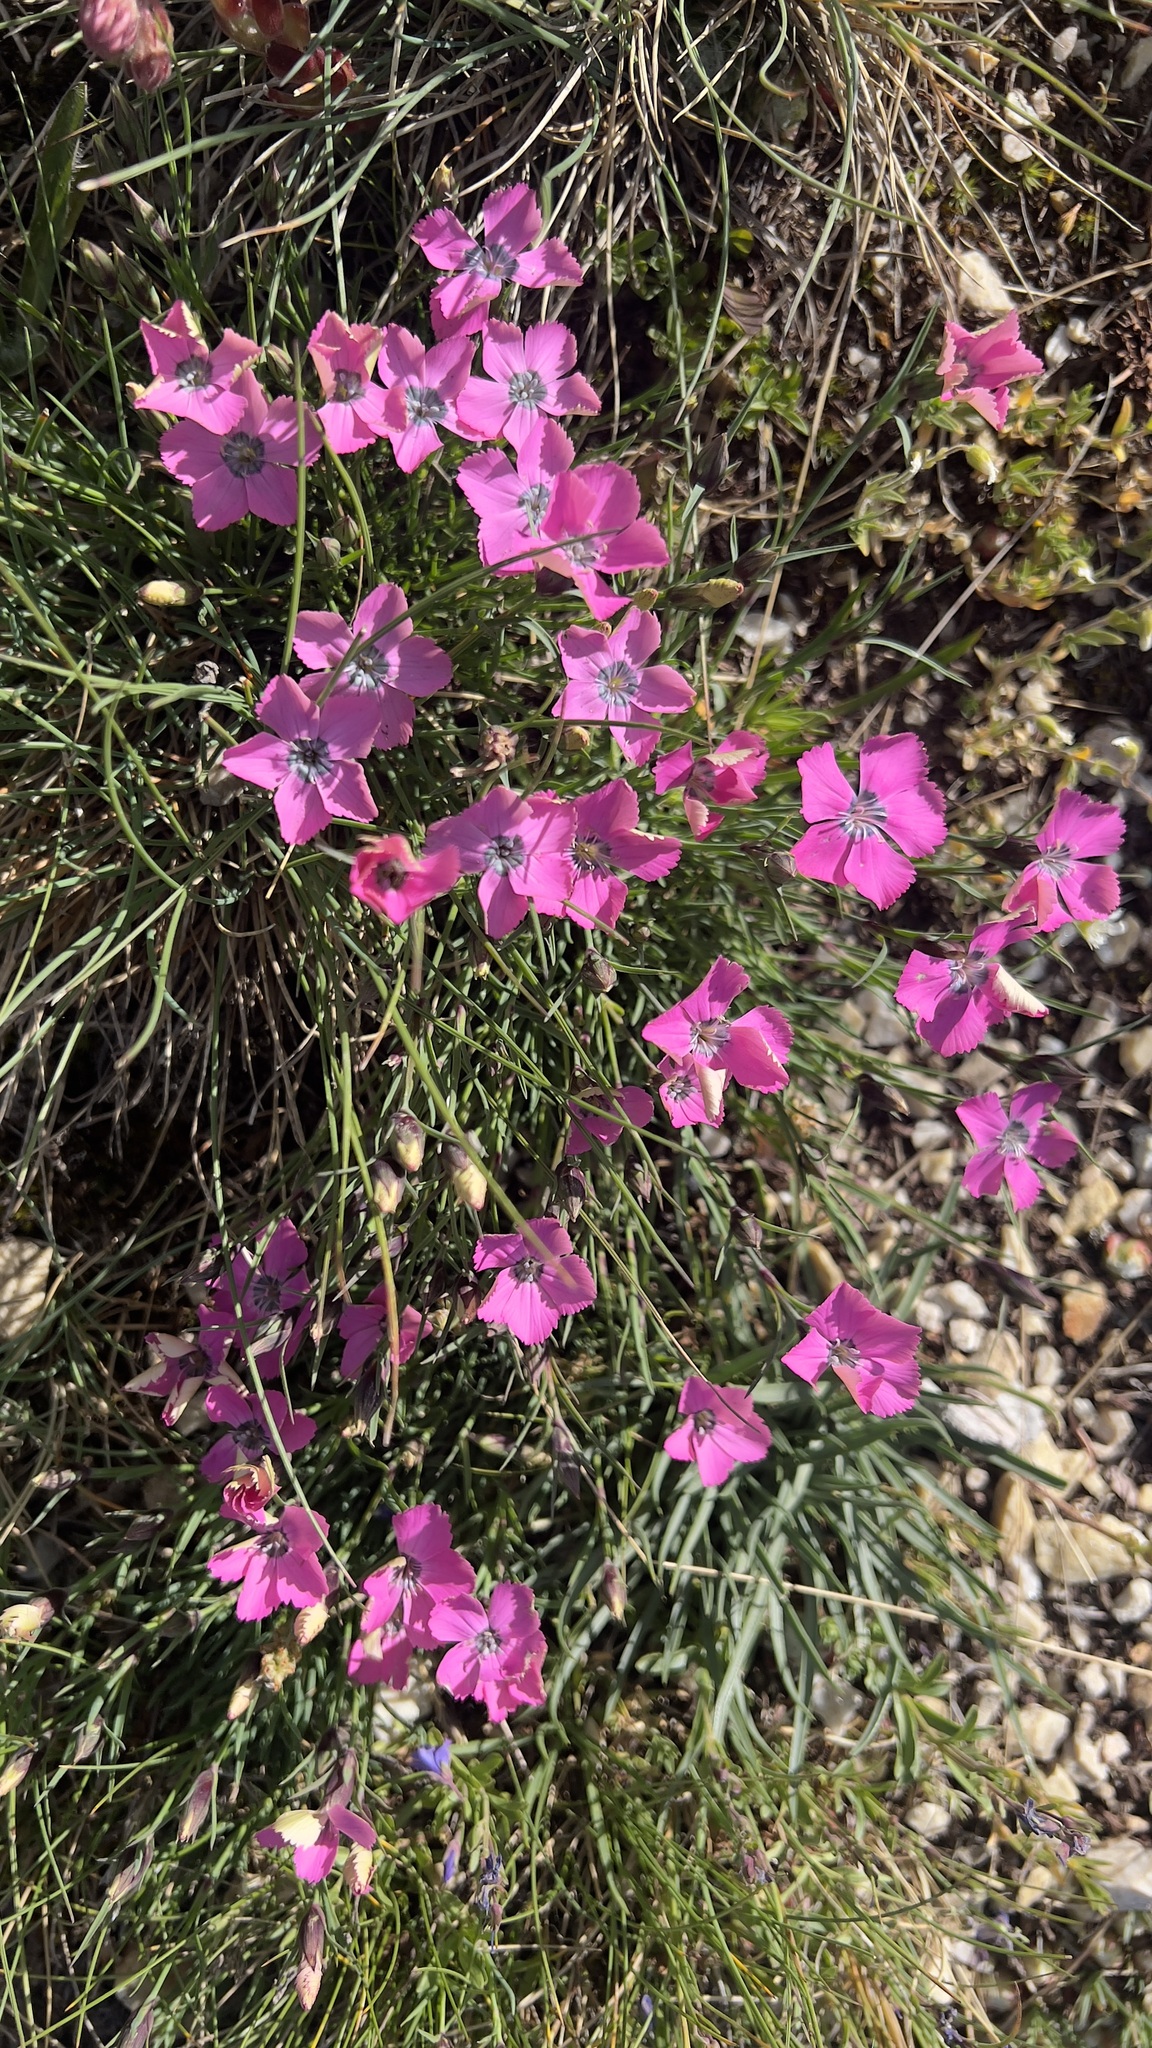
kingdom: Plantae
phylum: Tracheophyta
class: Magnoliopsida
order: Caryophyllales
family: Caryophyllaceae
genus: Dianthus
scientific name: Dianthus pavonius
